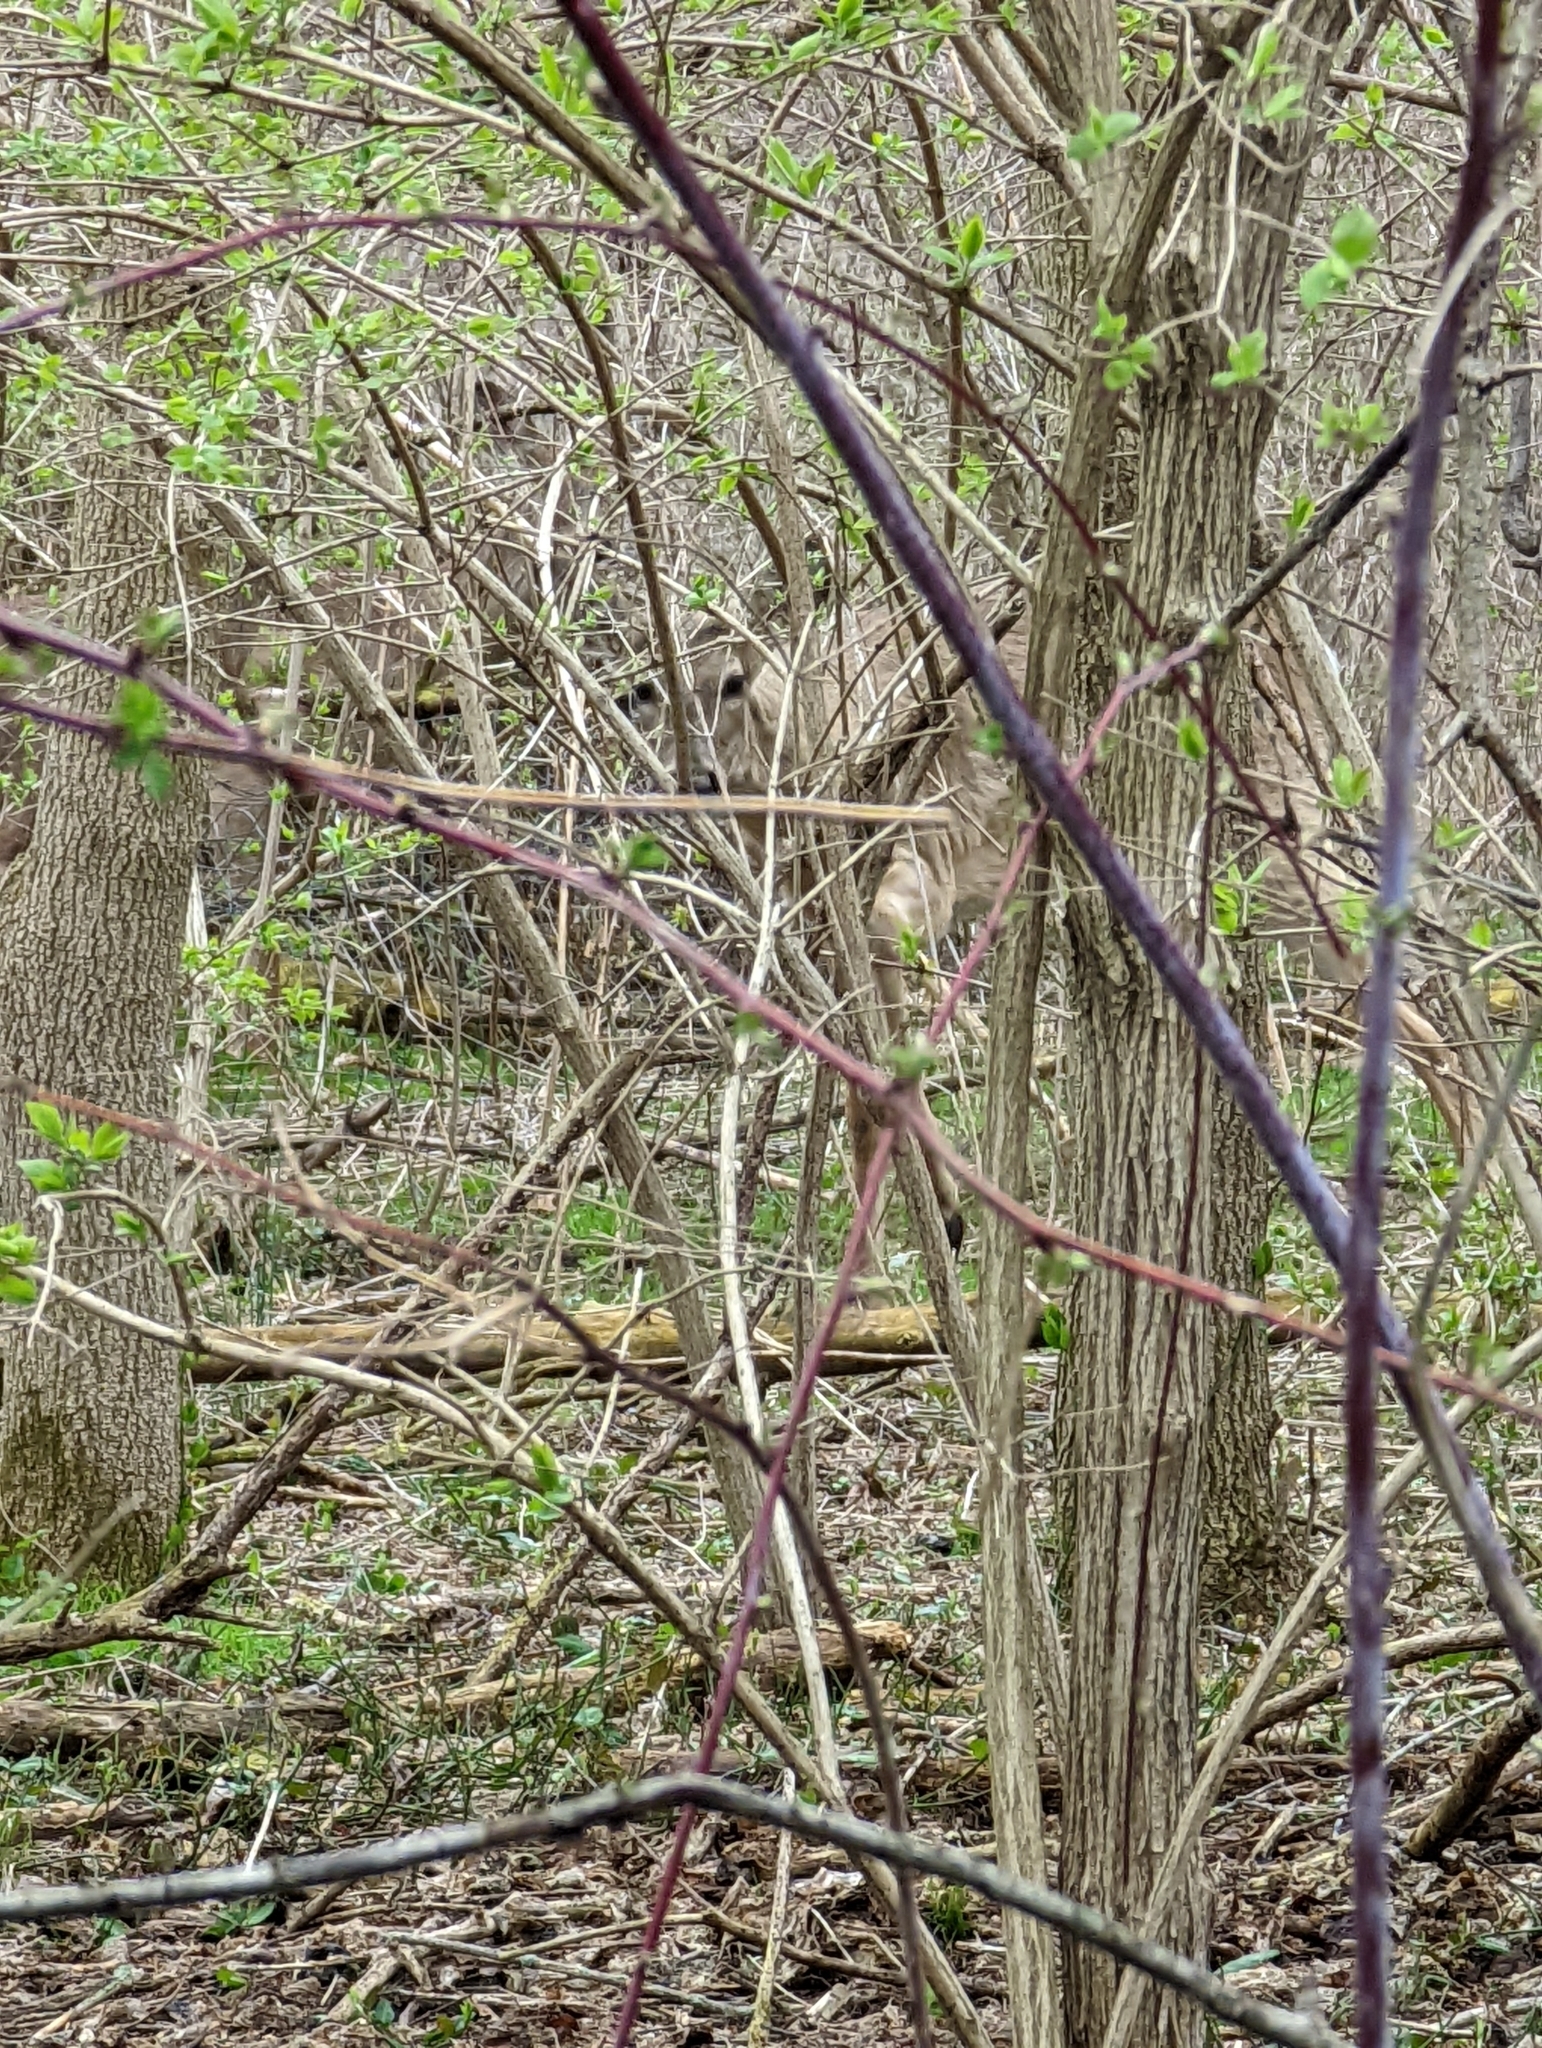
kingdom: Animalia
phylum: Chordata
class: Mammalia
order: Artiodactyla
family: Cervidae
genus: Odocoileus
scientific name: Odocoileus virginianus
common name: White-tailed deer
